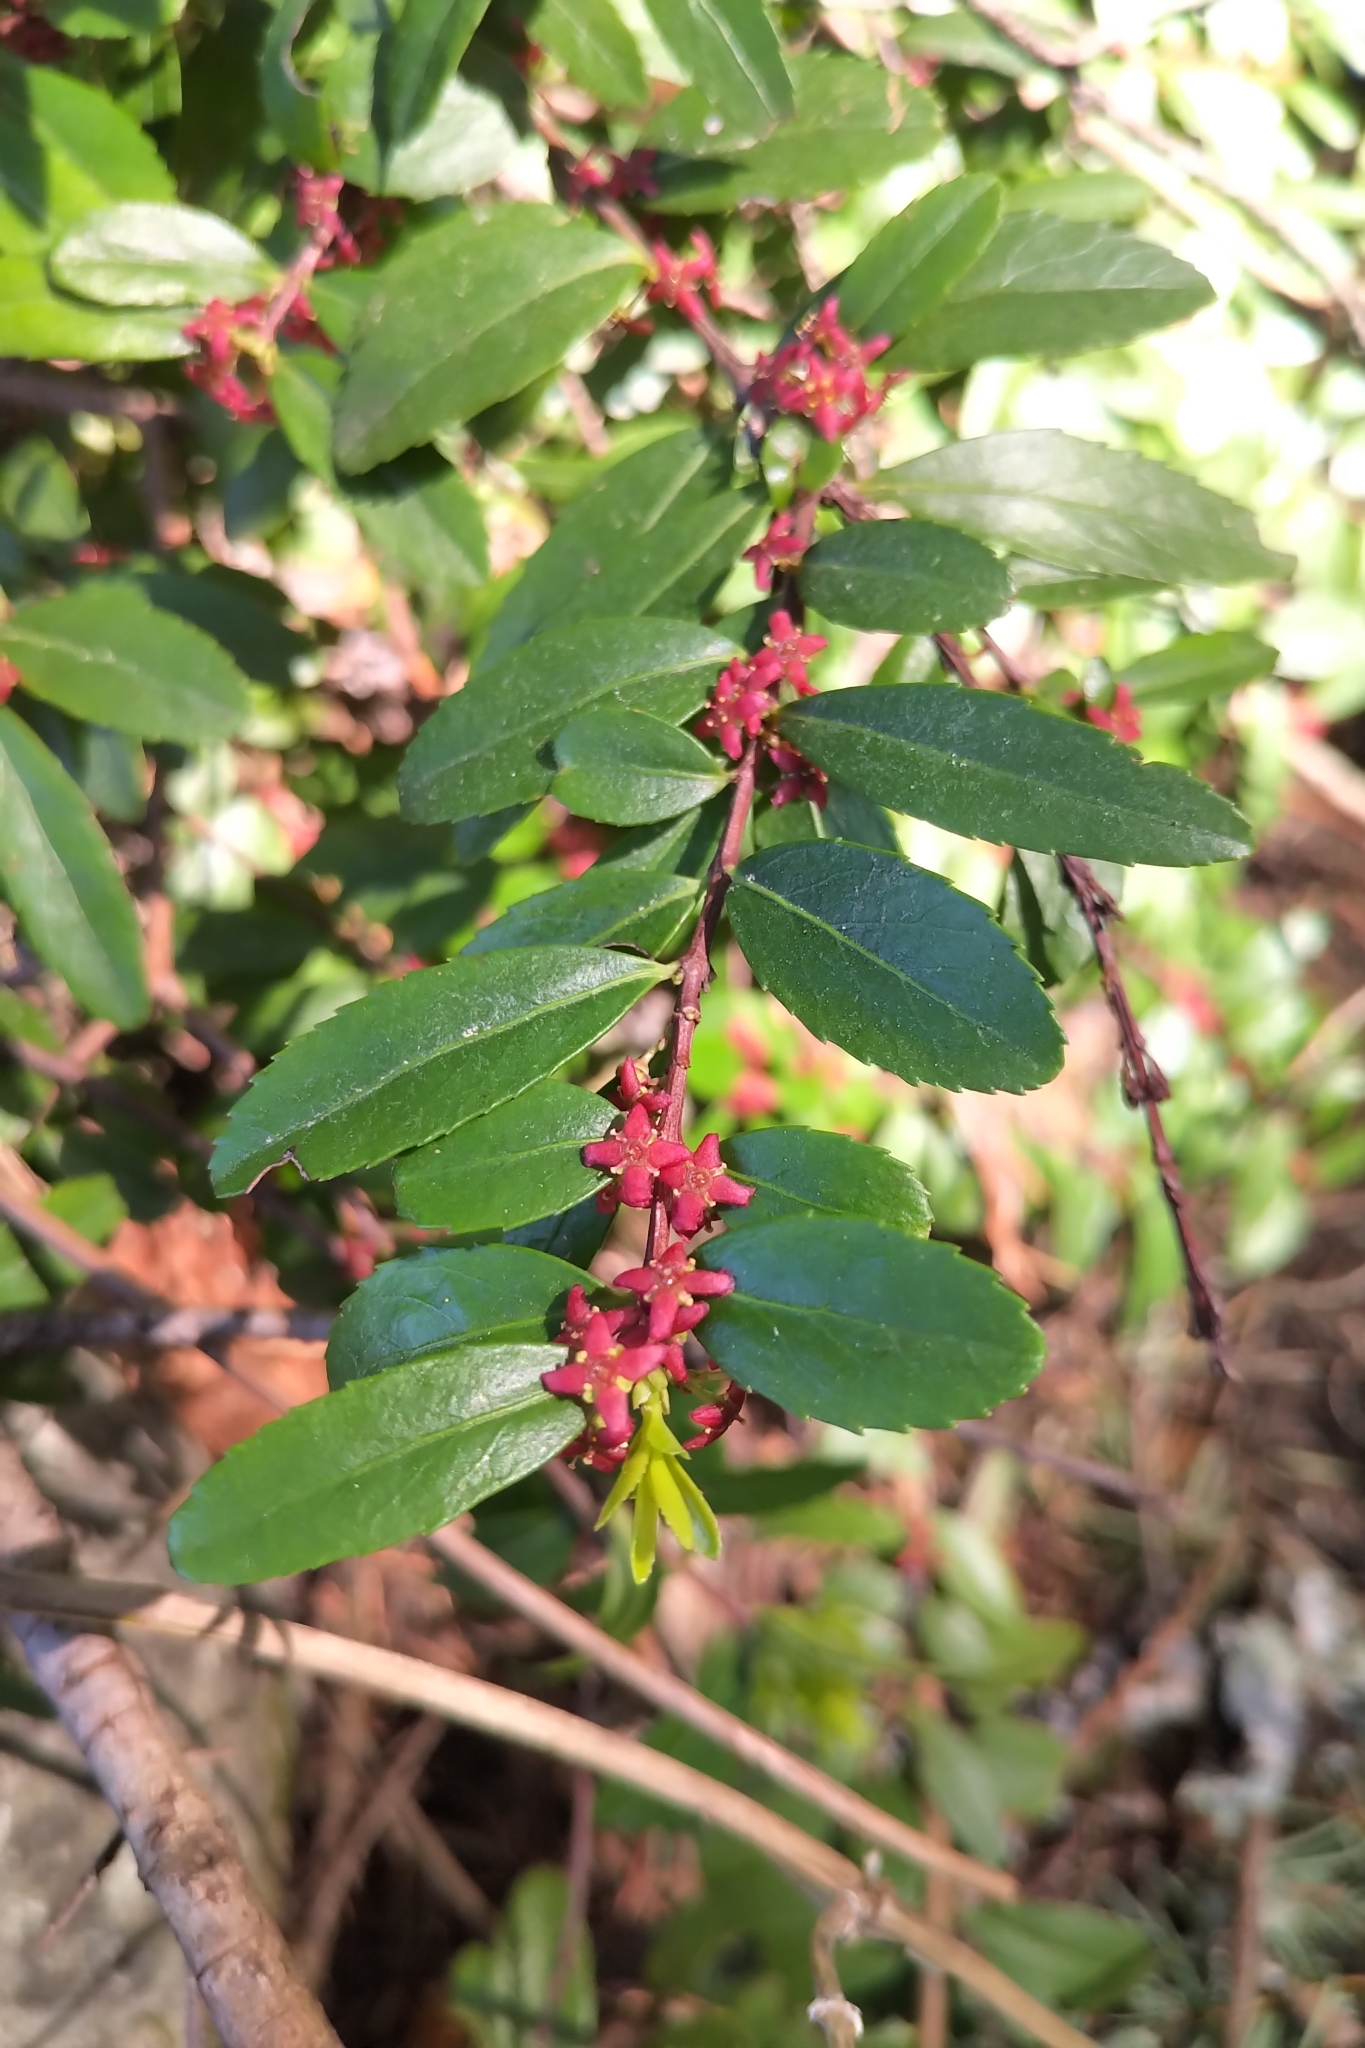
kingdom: Plantae
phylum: Tracheophyta
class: Magnoliopsida
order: Celastrales
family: Celastraceae
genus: Paxistima
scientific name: Paxistima myrsinites
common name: Mountain-lover
